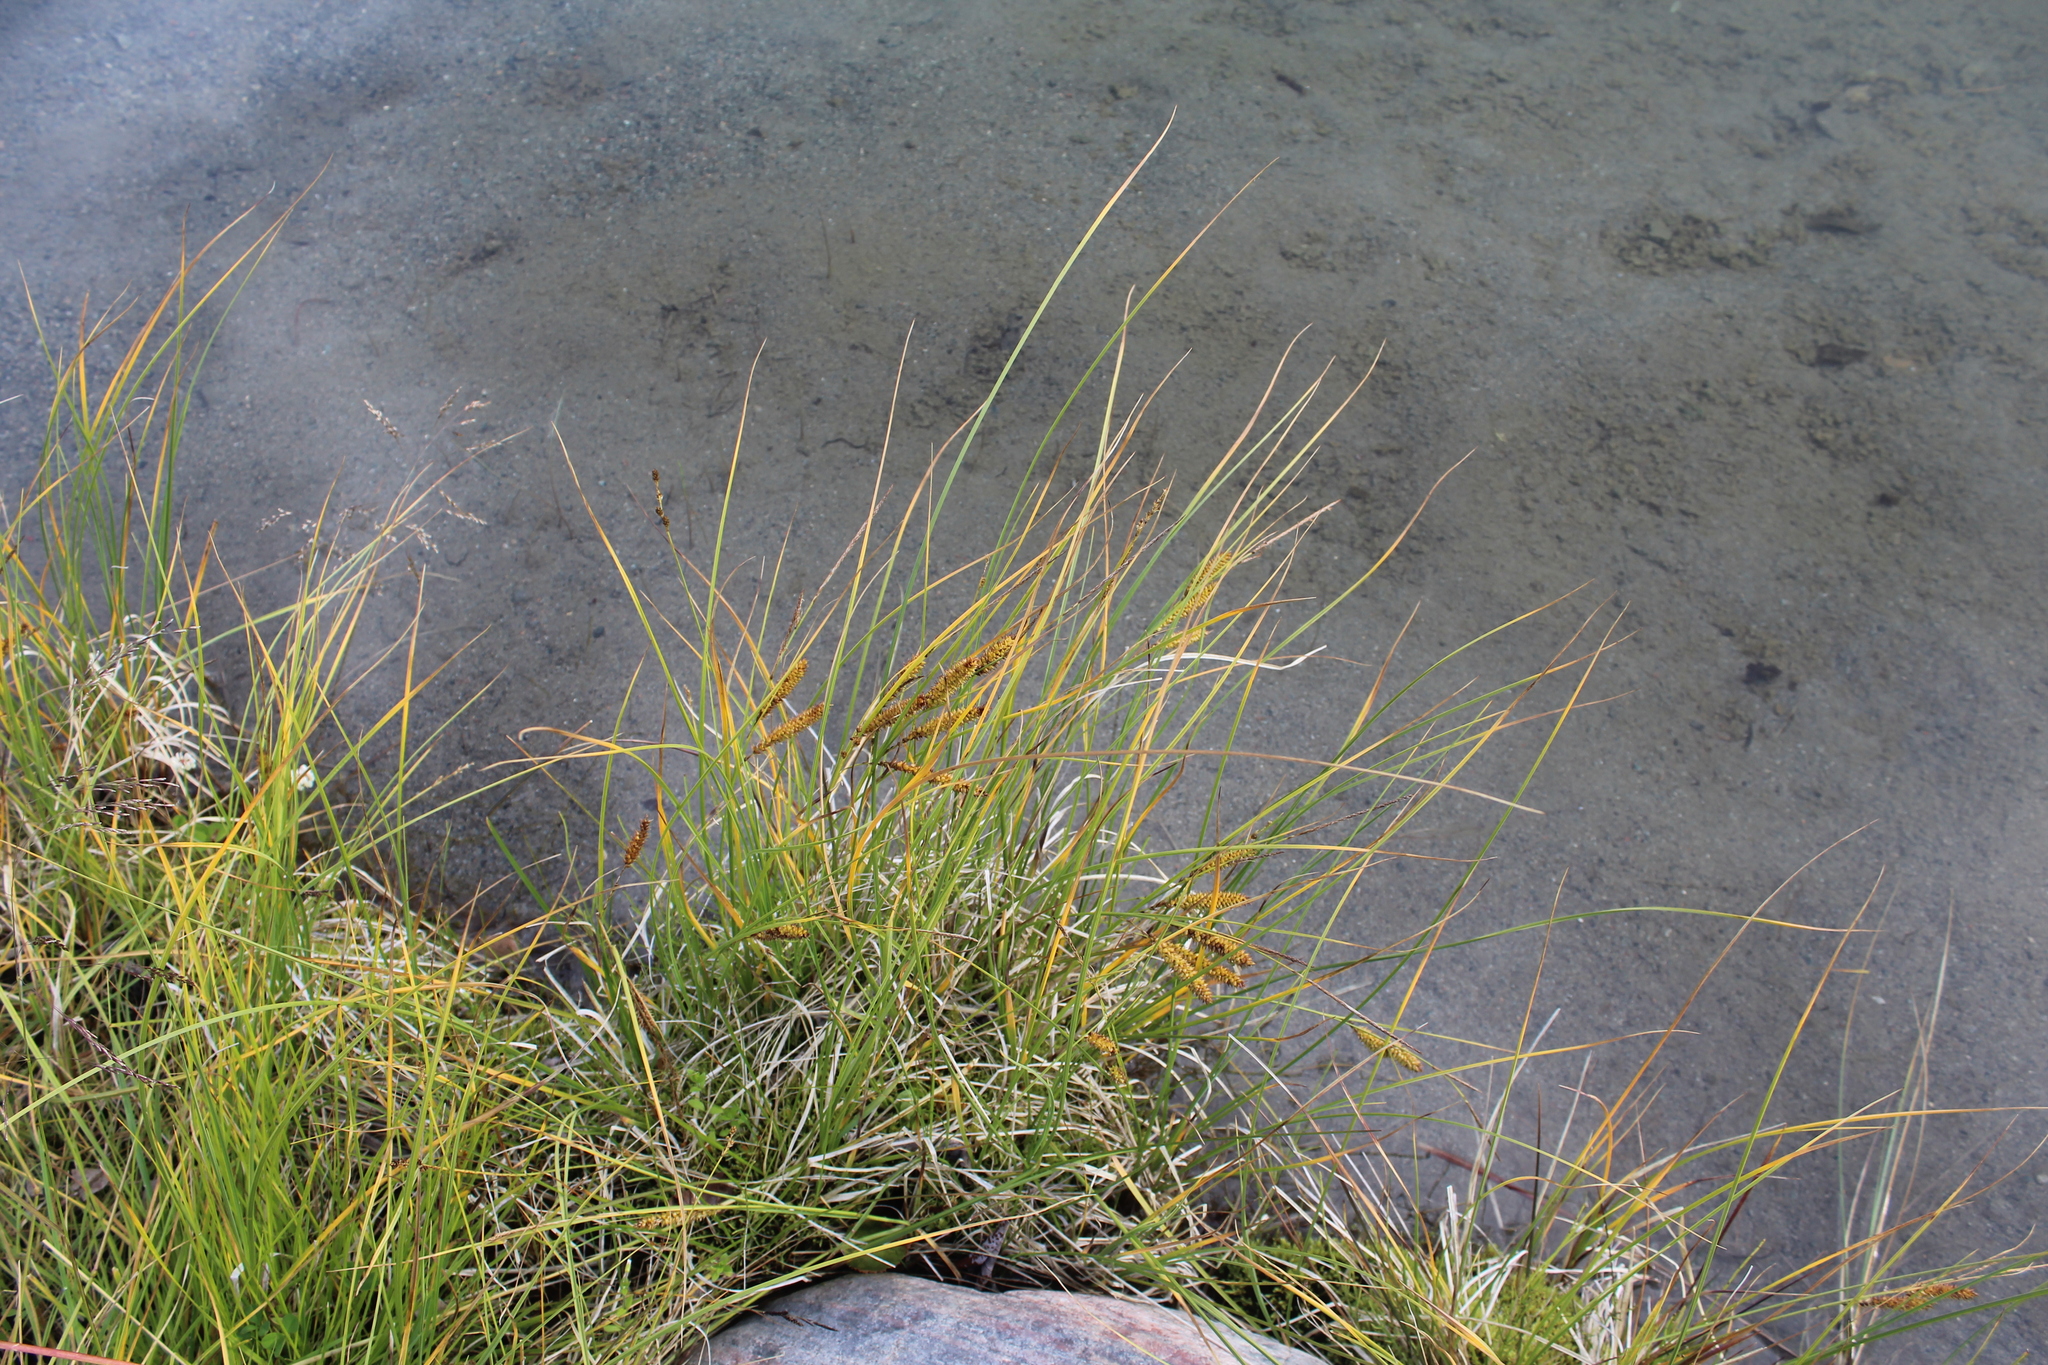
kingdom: Plantae
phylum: Tracheophyta
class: Liliopsida
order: Poales
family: Cyperaceae
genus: Carex
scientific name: Carex rostrata
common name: Bottle sedge
